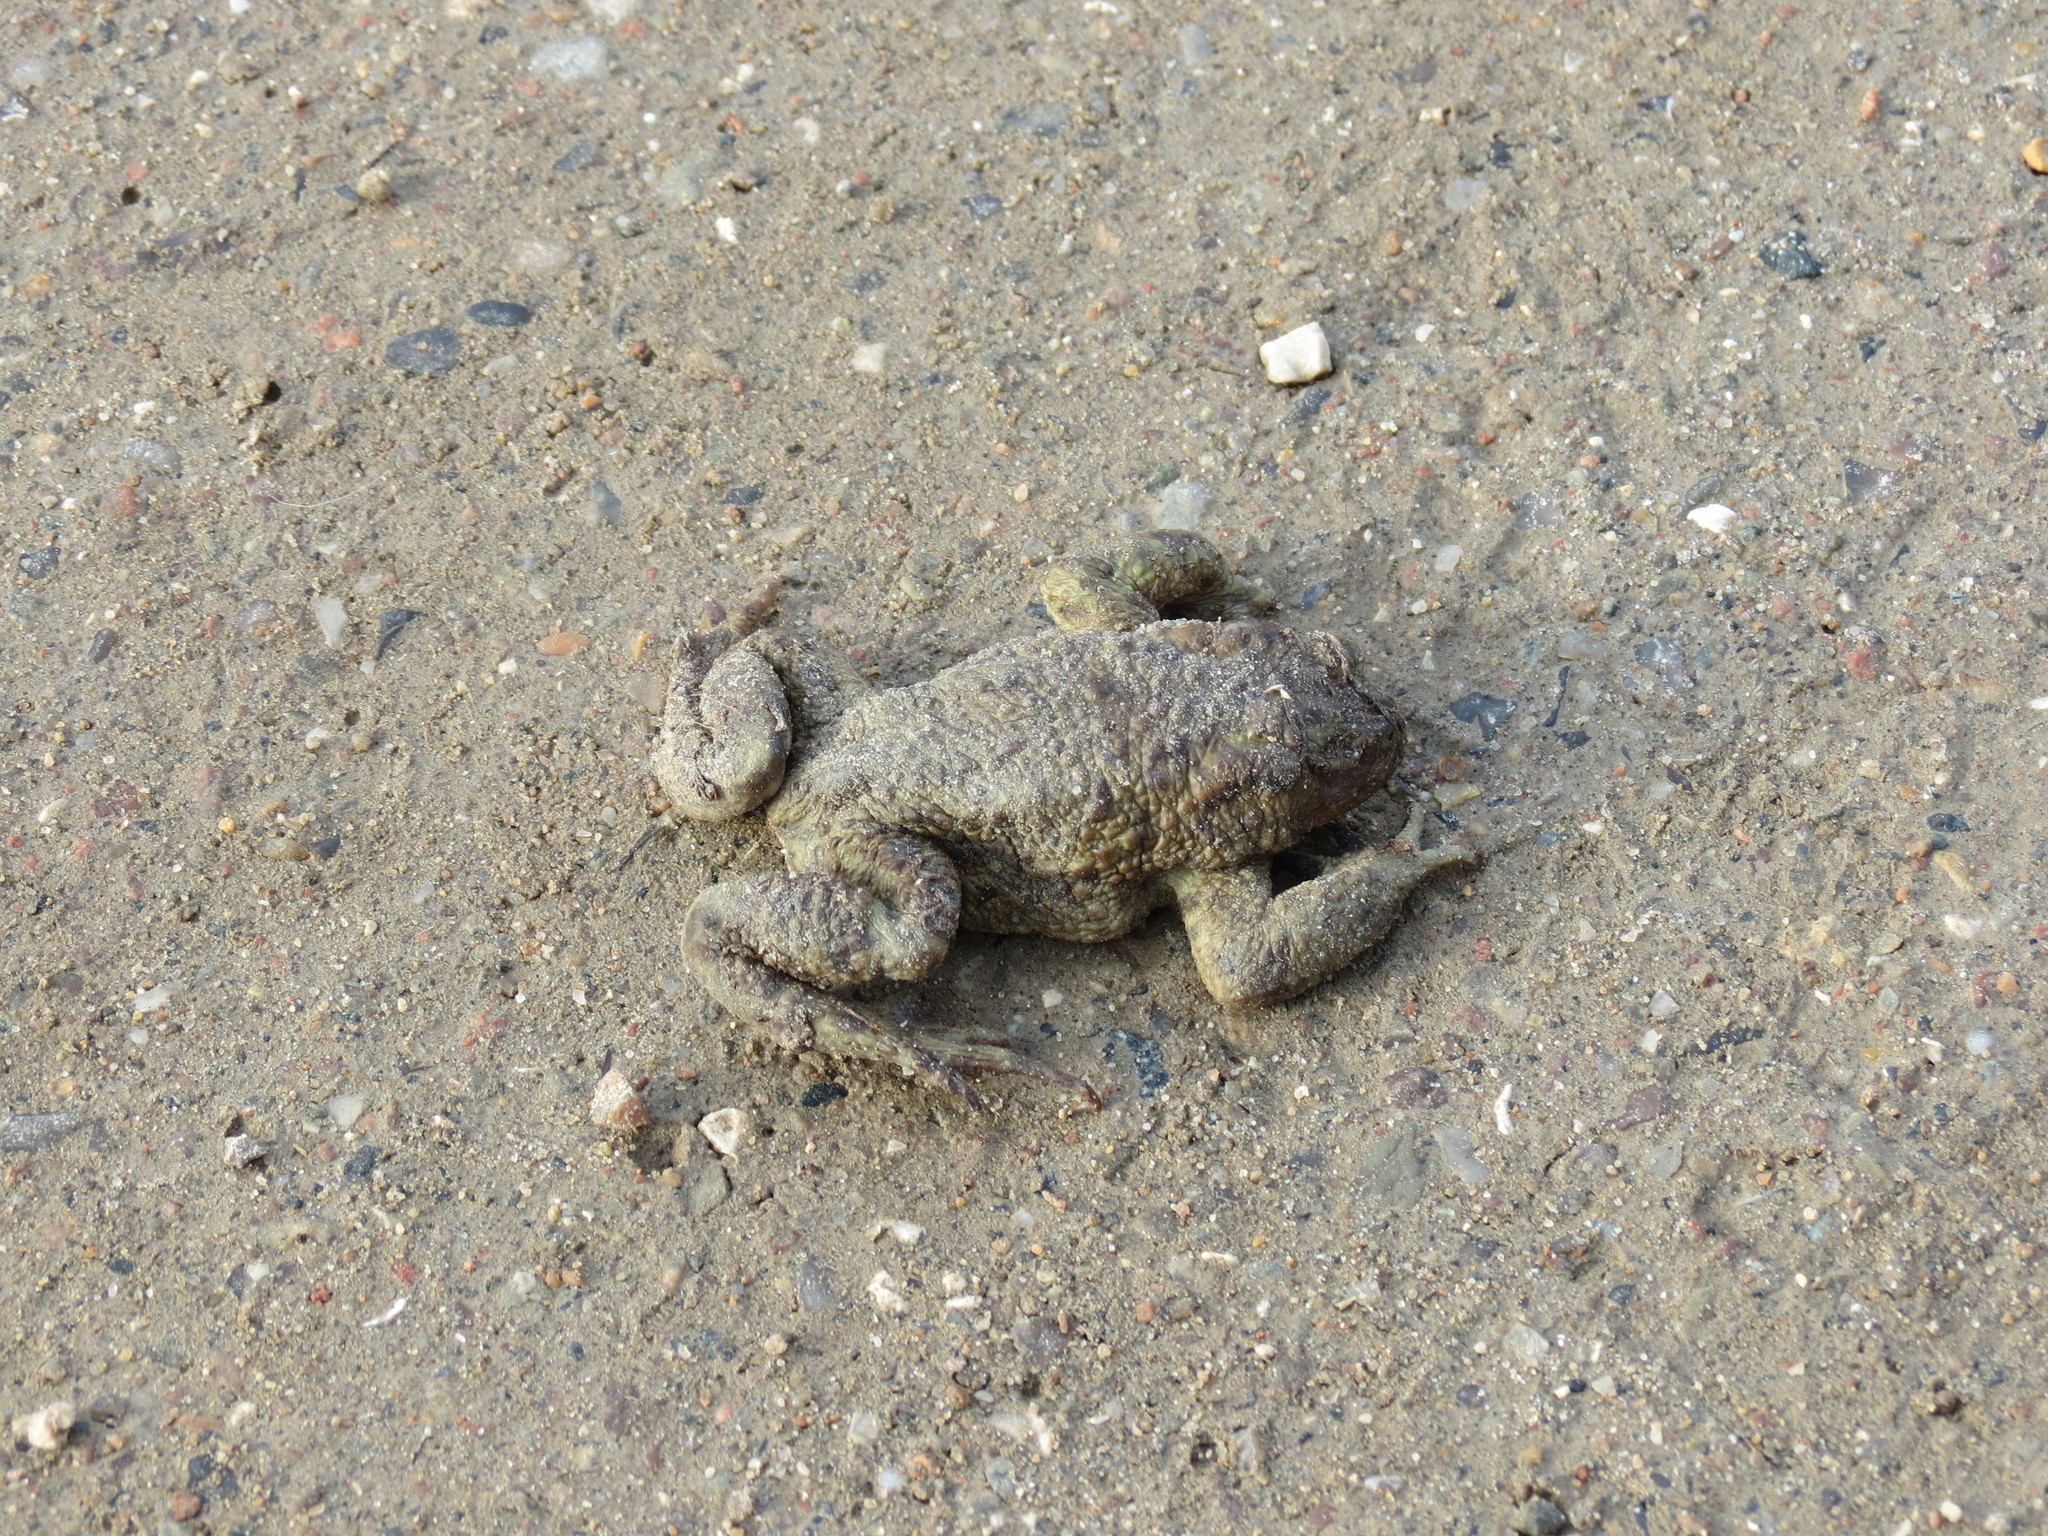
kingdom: Animalia
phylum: Chordata
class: Amphibia
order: Anura
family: Bufonidae
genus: Bufo
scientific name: Bufo bufo
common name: Common toad
